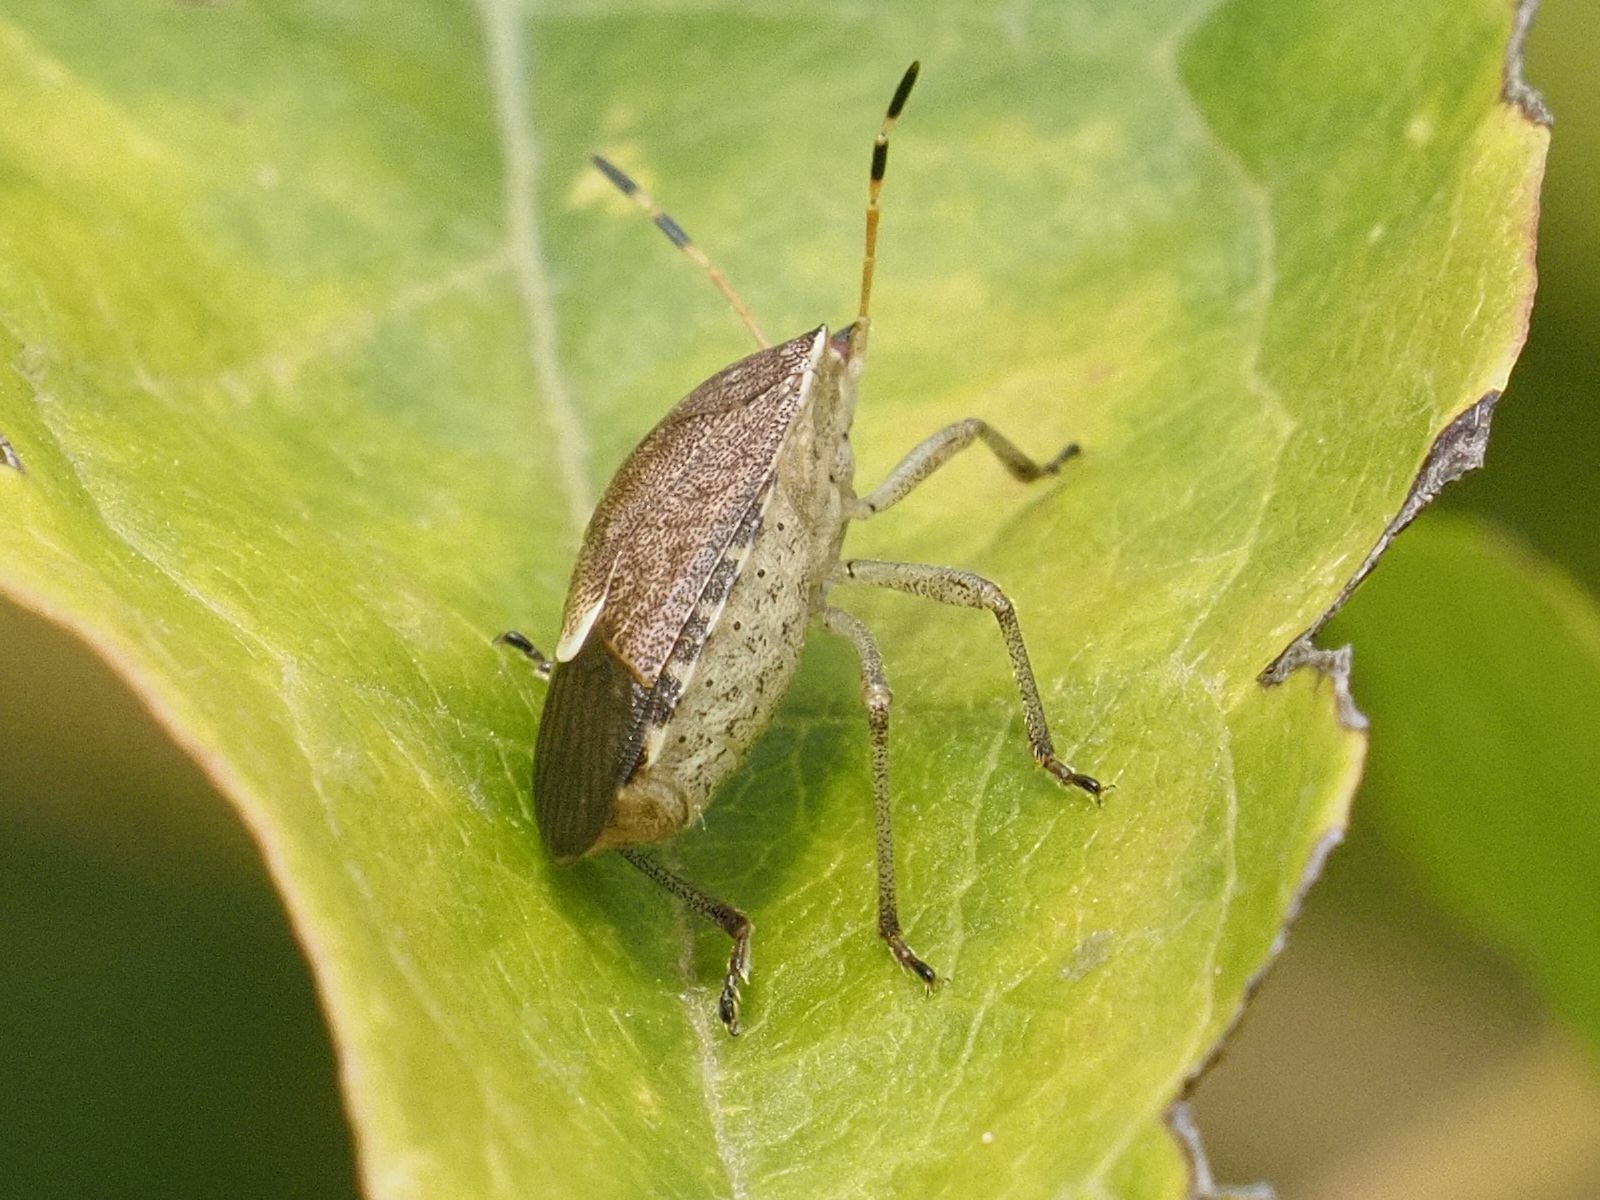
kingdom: Animalia
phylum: Arthropoda
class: Insecta
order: Hemiptera
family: Pentatomidae
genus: Holcostethus
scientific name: Holcostethus strictus
